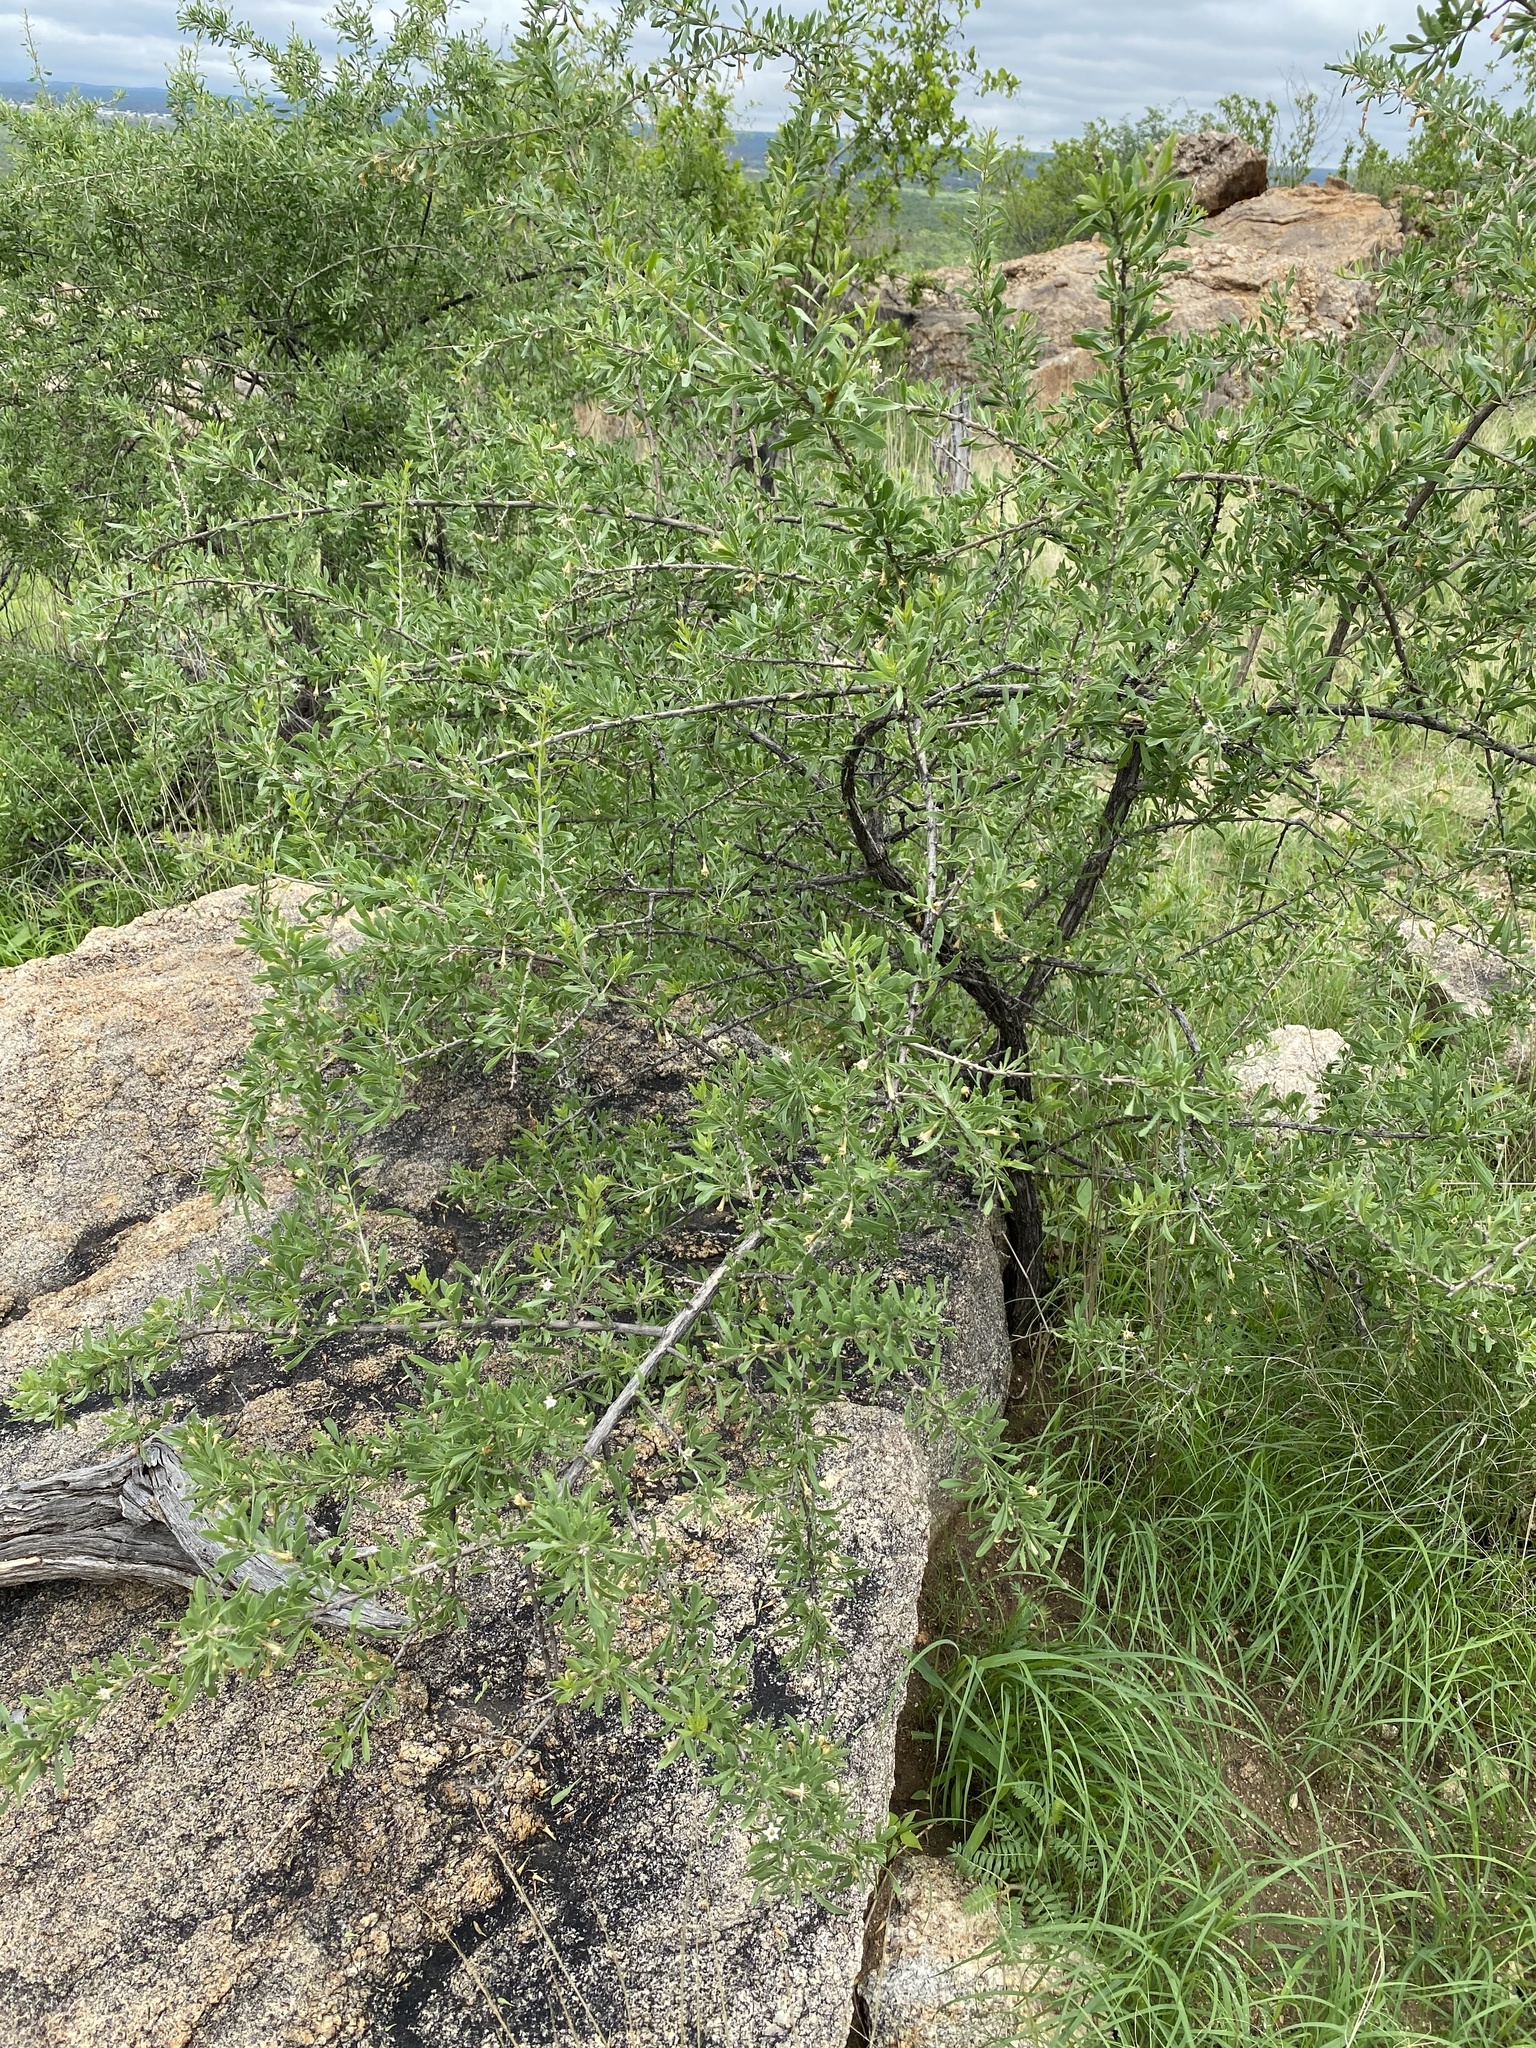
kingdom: Plantae
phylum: Tracheophyta
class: Magnoliopsida
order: Solanales
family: Solanaceae
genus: Lycium
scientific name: Lycium bosciifolium
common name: Limpopo honey-thorn
